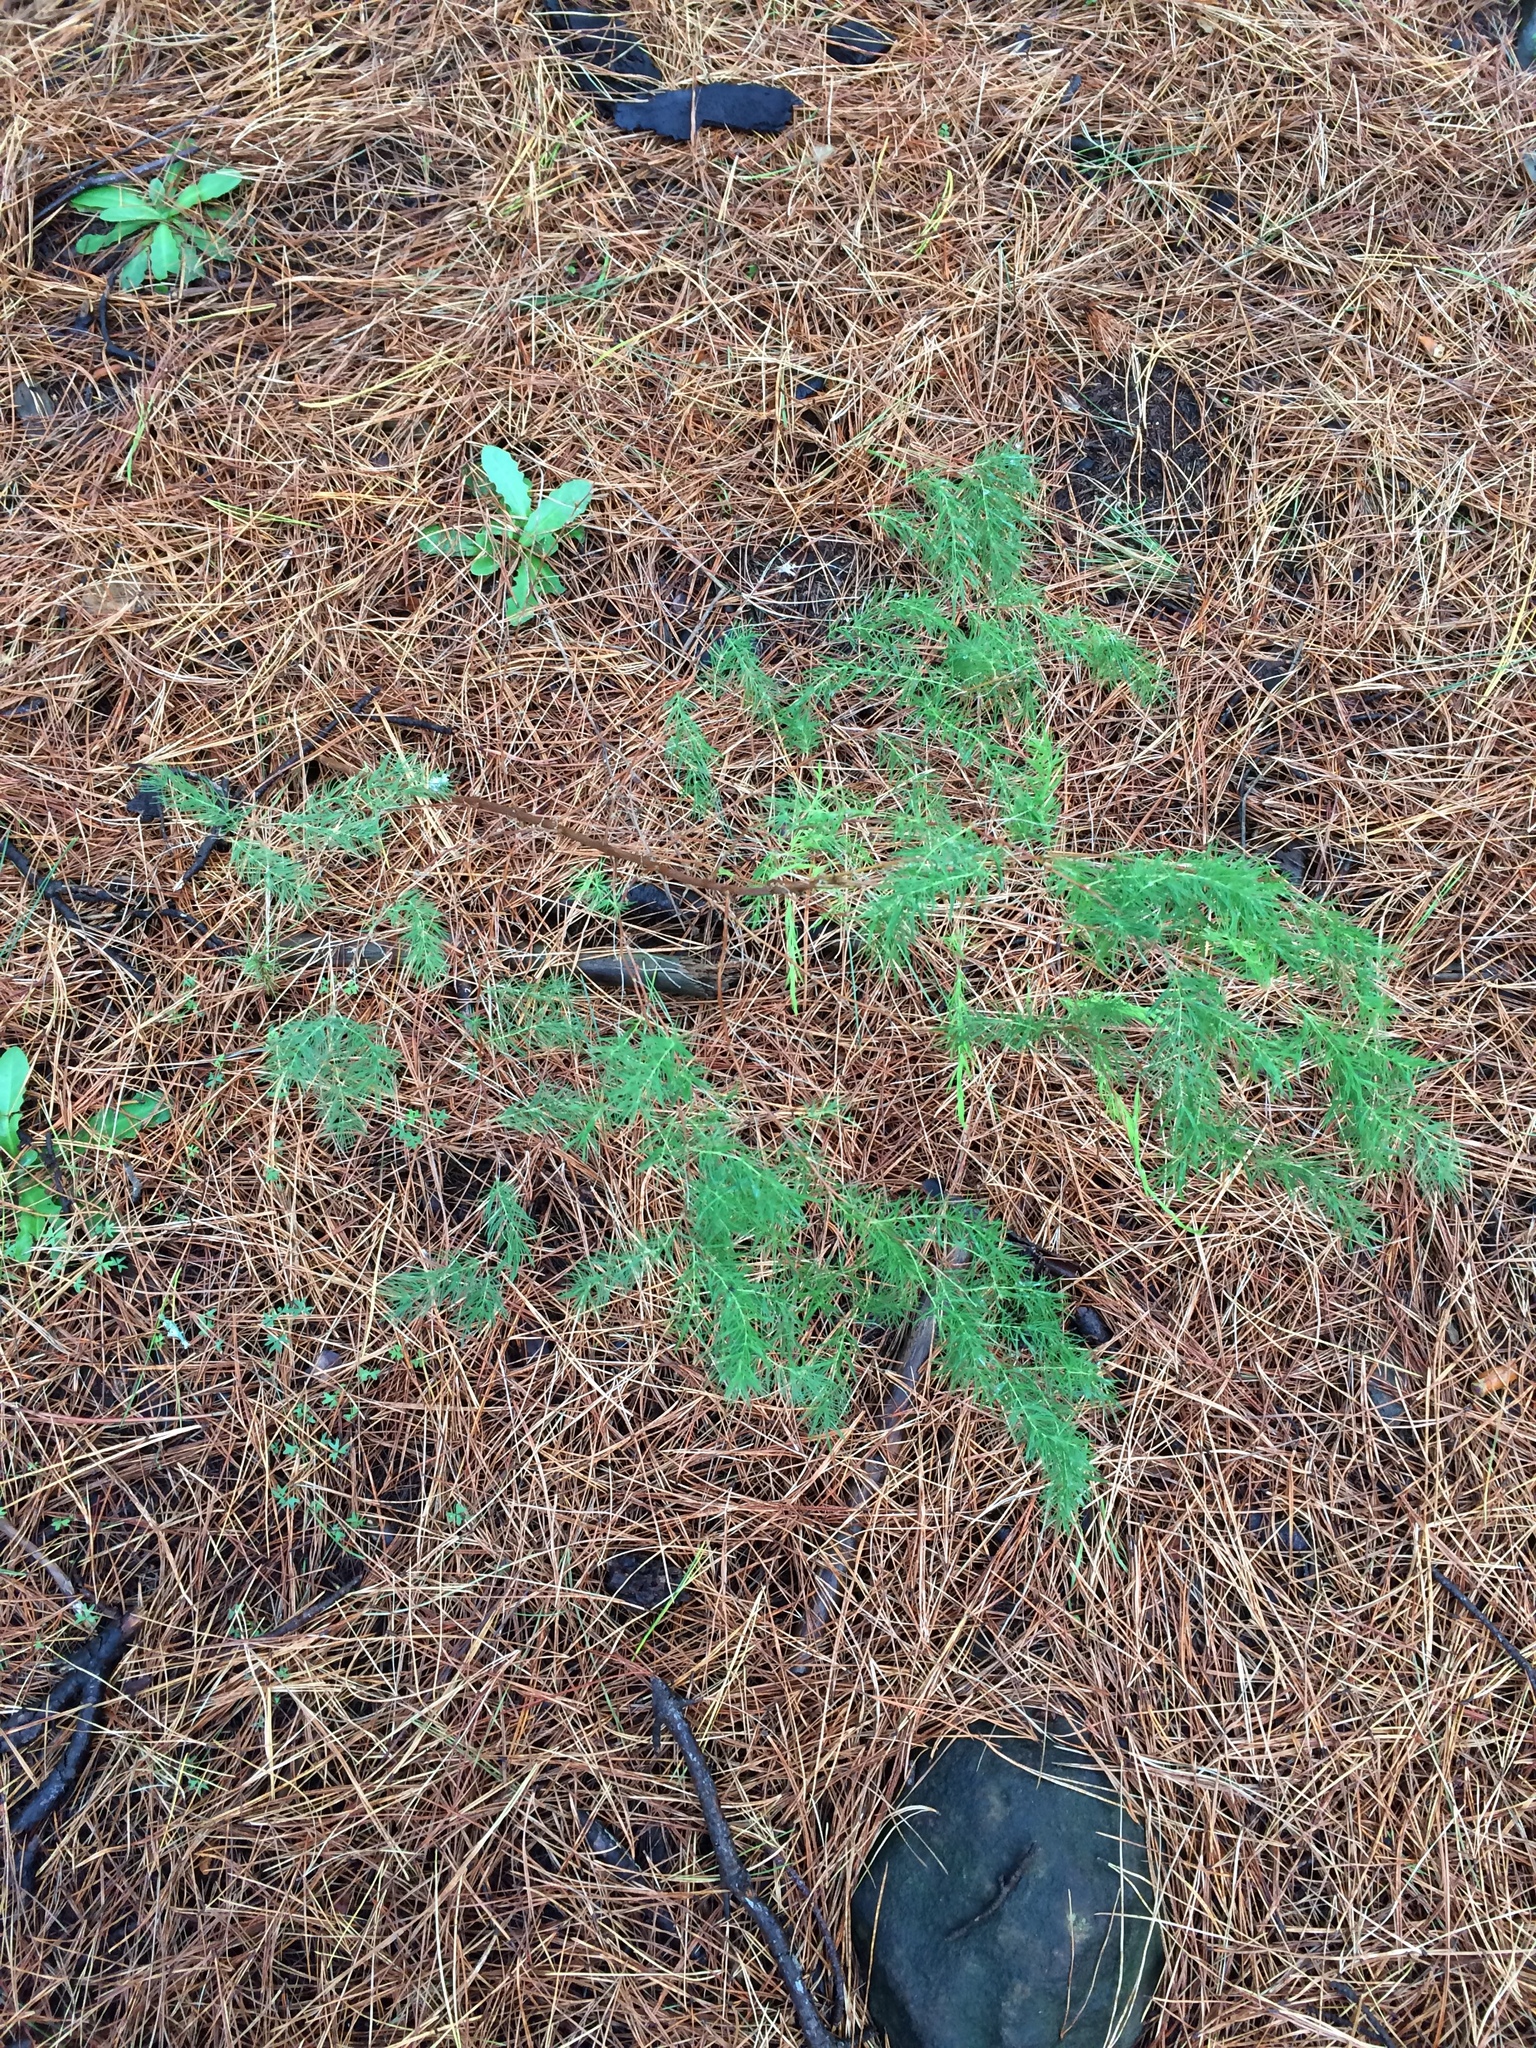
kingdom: Plantae
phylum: Tracheophyta
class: Liliopsida
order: Asparagales
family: Asparagaceae
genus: Asparagus
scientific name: Asparagus rubicundus
